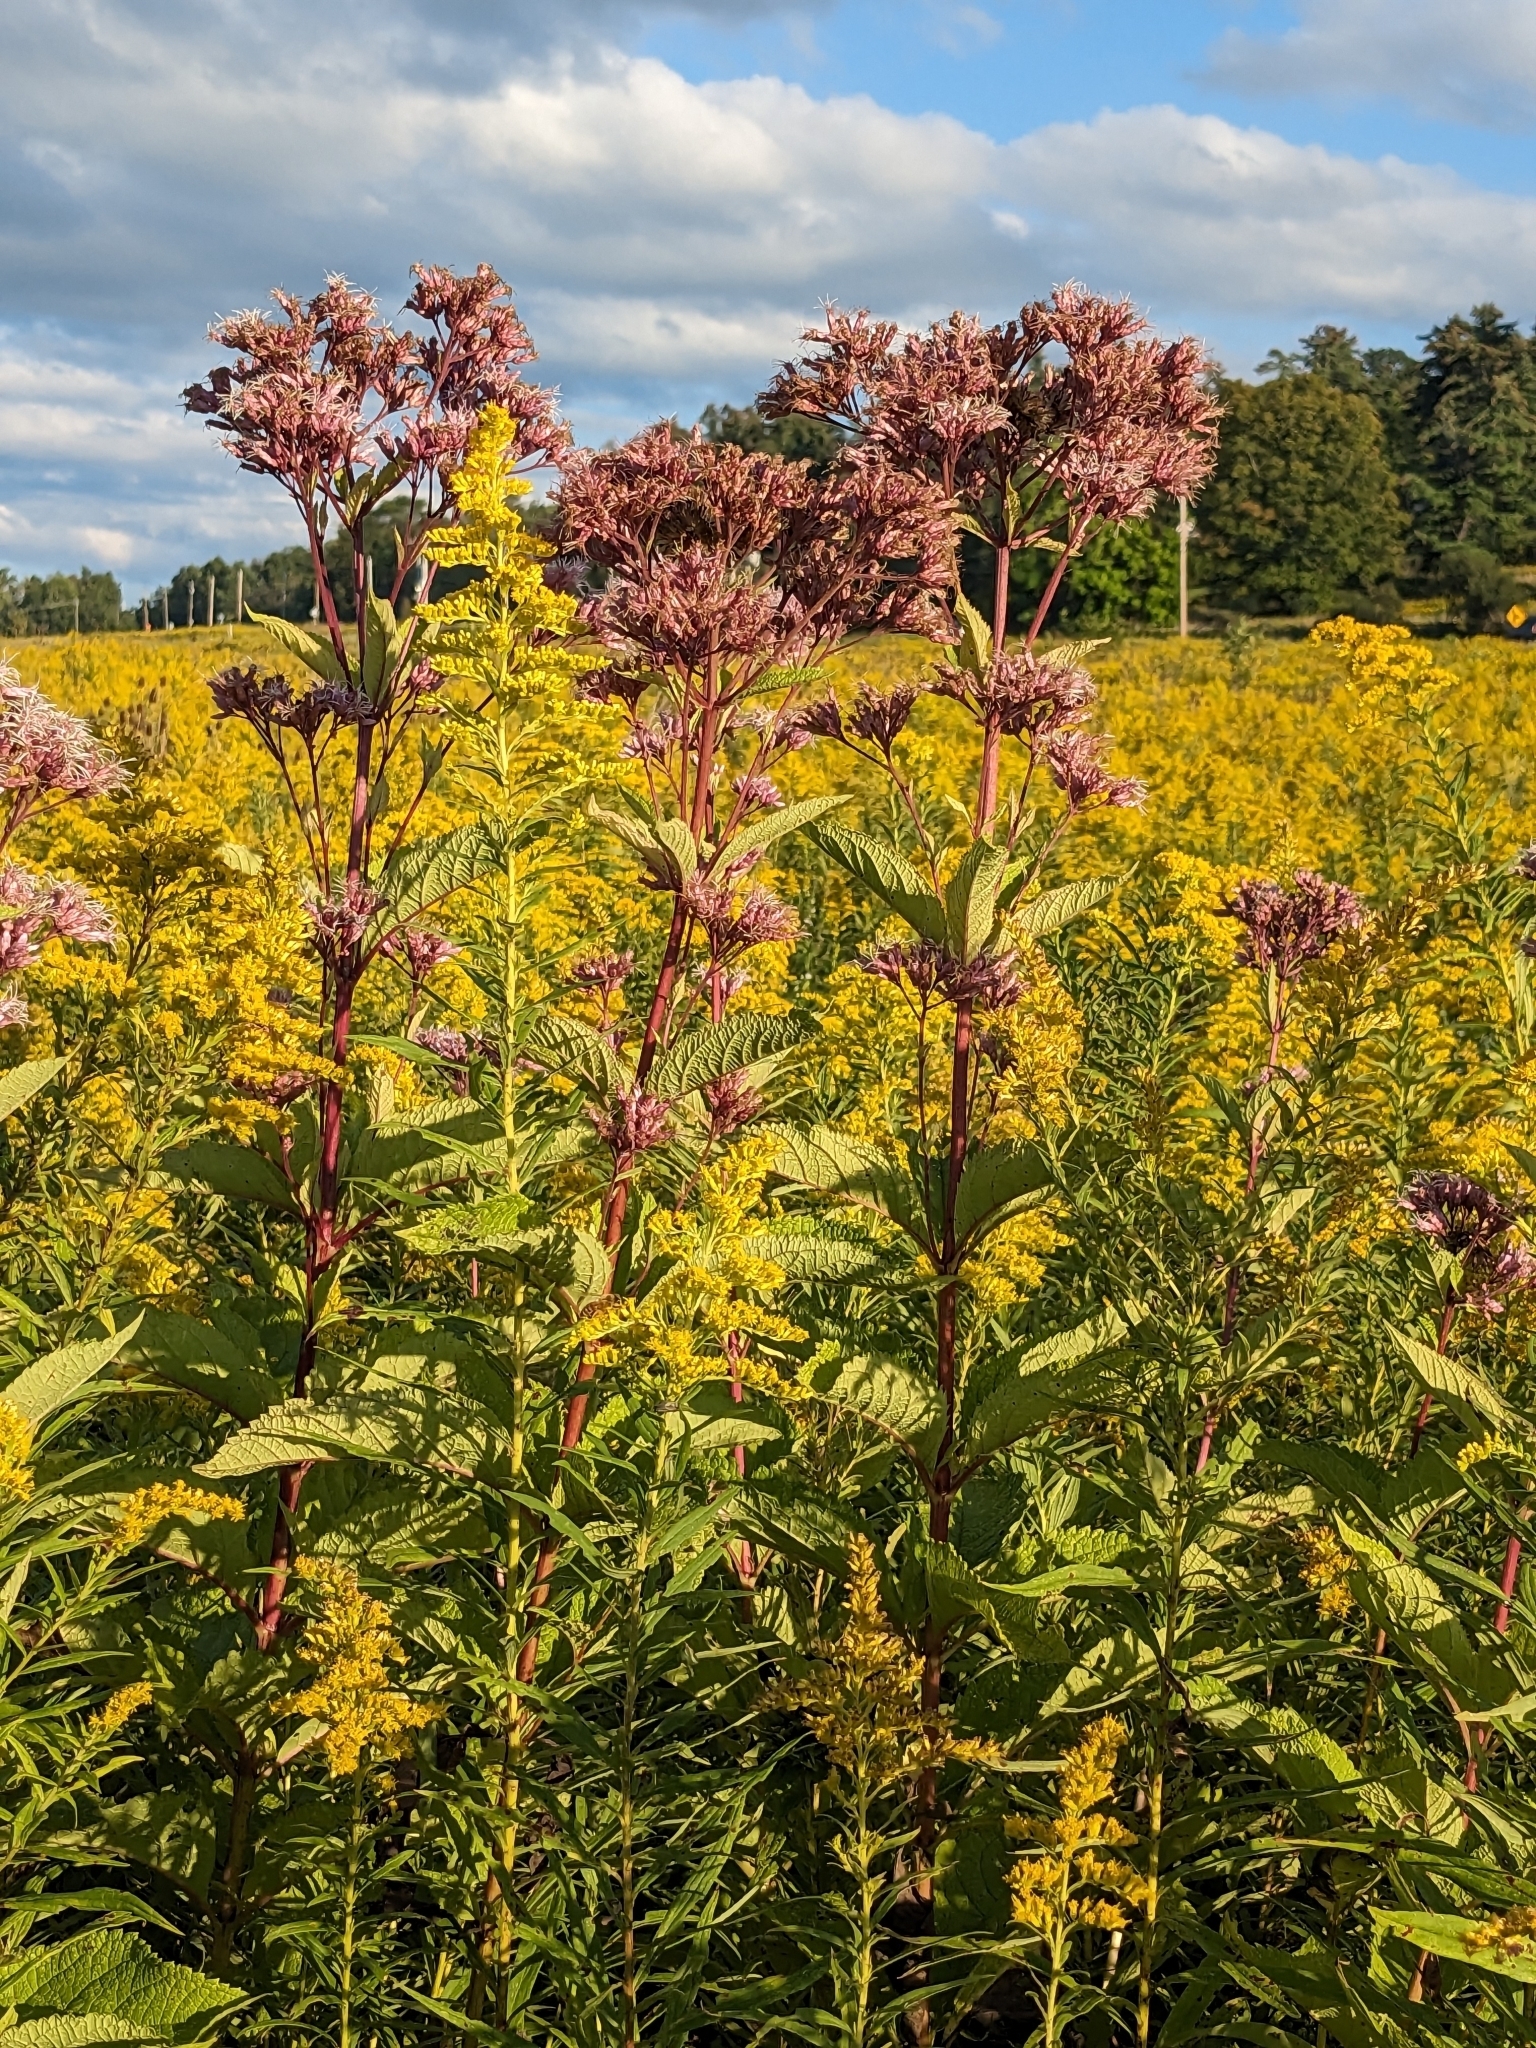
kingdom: Plantae
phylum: Tracheophyta
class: Magnoliopsida
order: Asterales
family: Asteraceae
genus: Eutrochium
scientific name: Eutrochium maculatum
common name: Spotted joe pye weed
